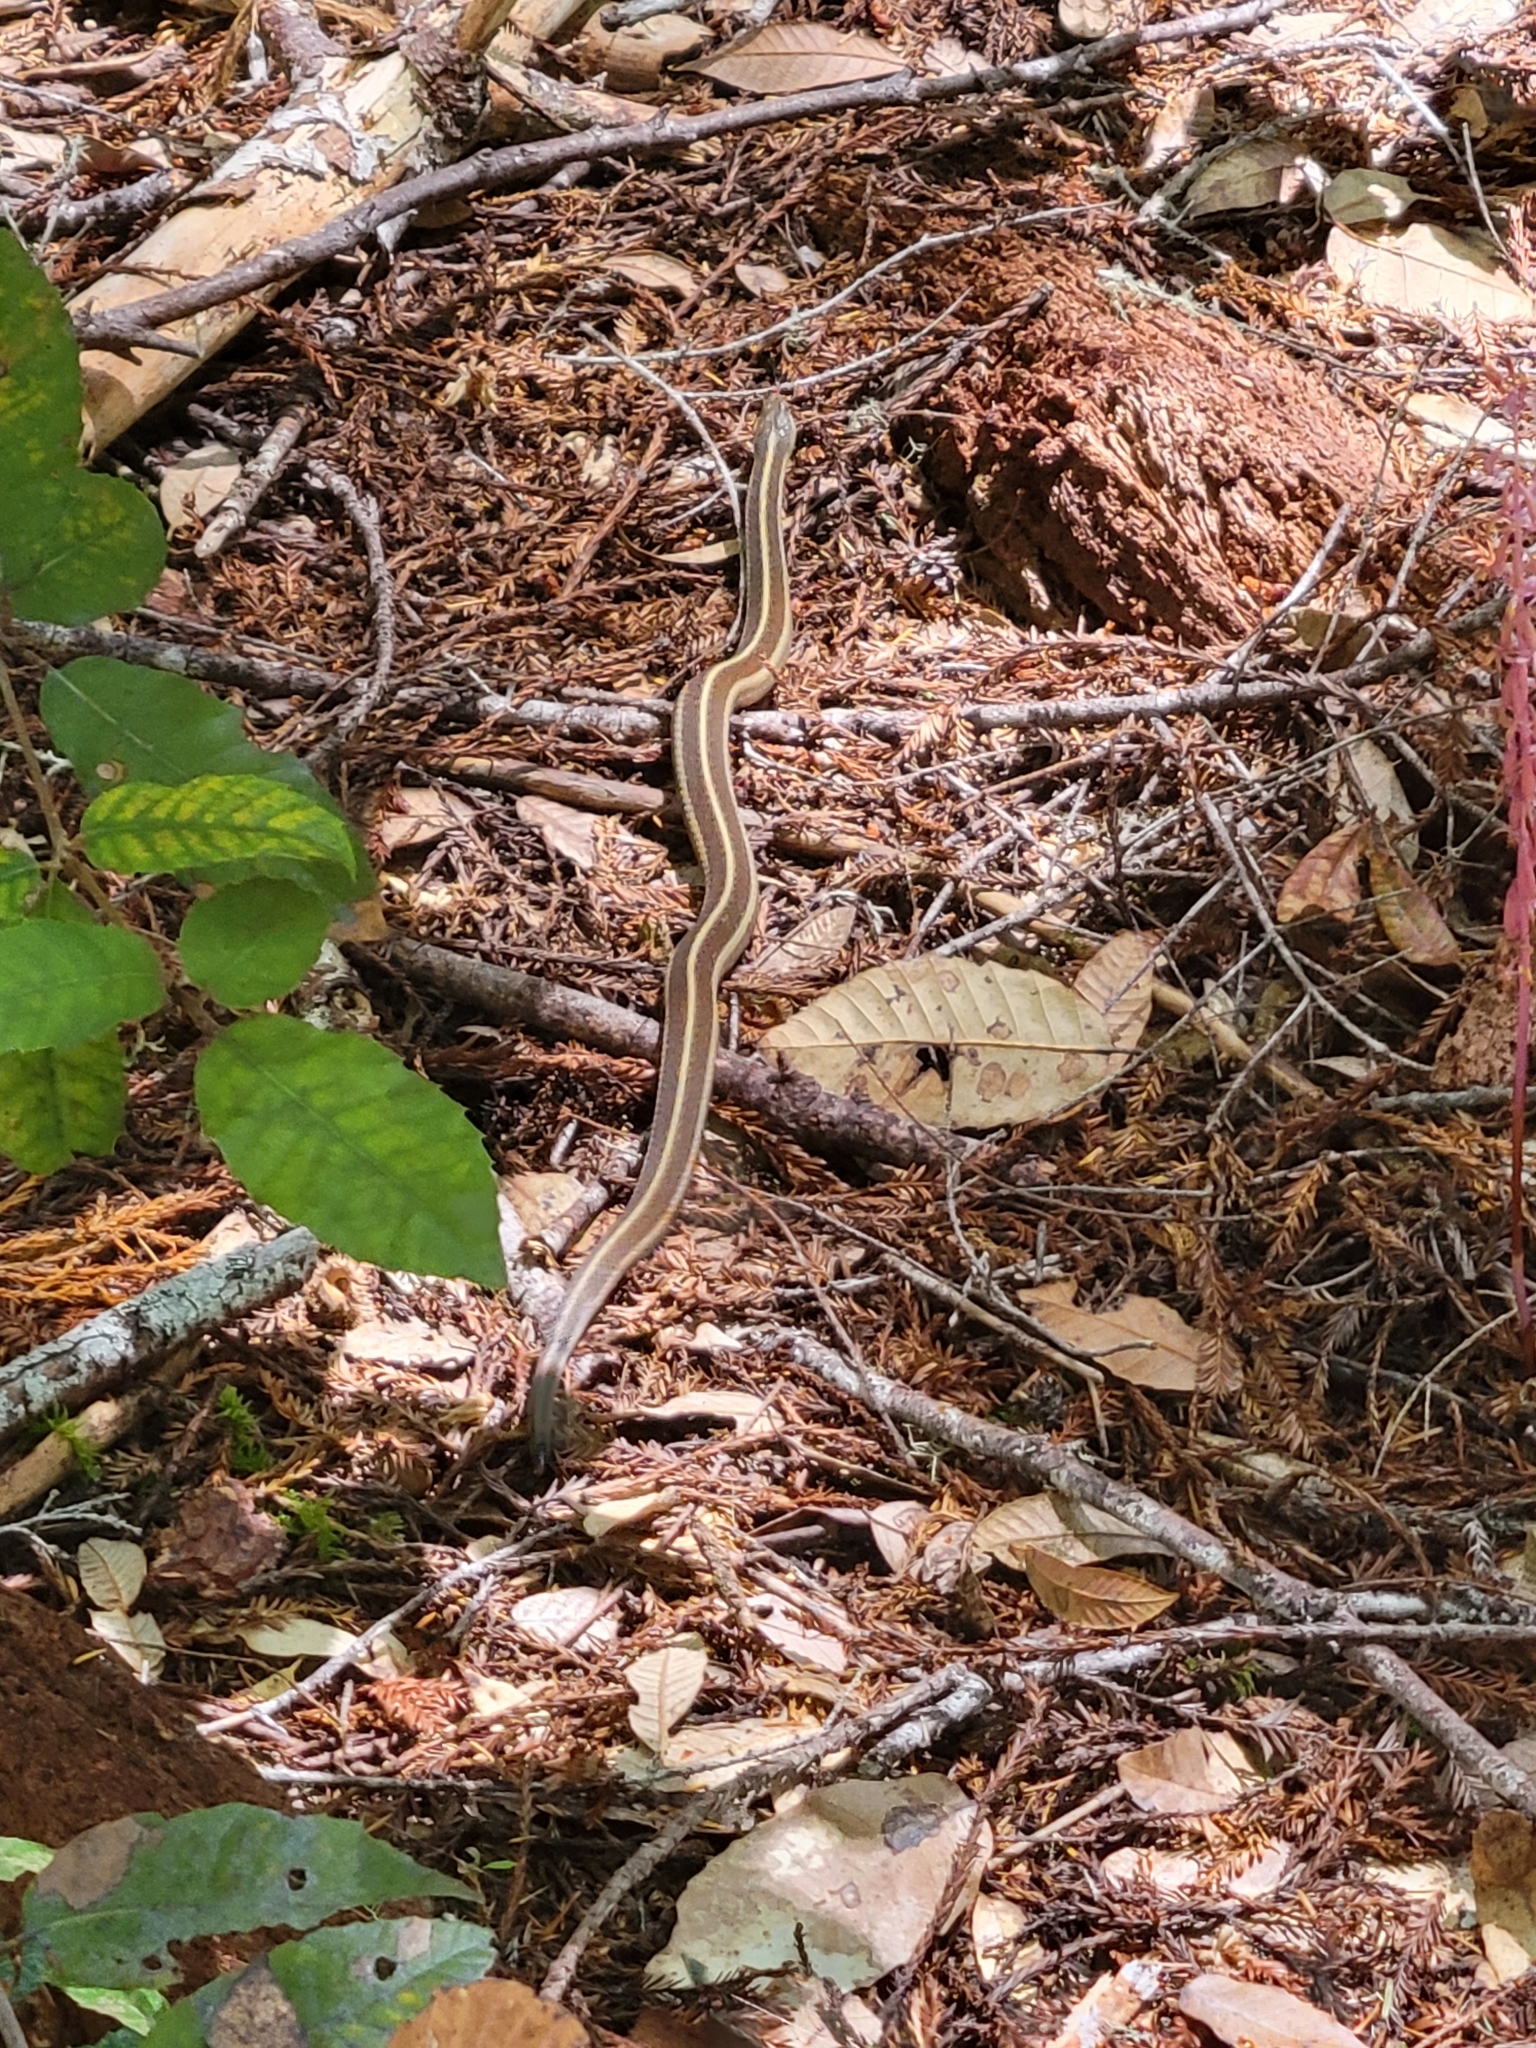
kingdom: Animalia
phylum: Chordata
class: Squamata
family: Colubridae
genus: Thamnophis
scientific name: Thamnophis elegans
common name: Western terrestrial garter snake
